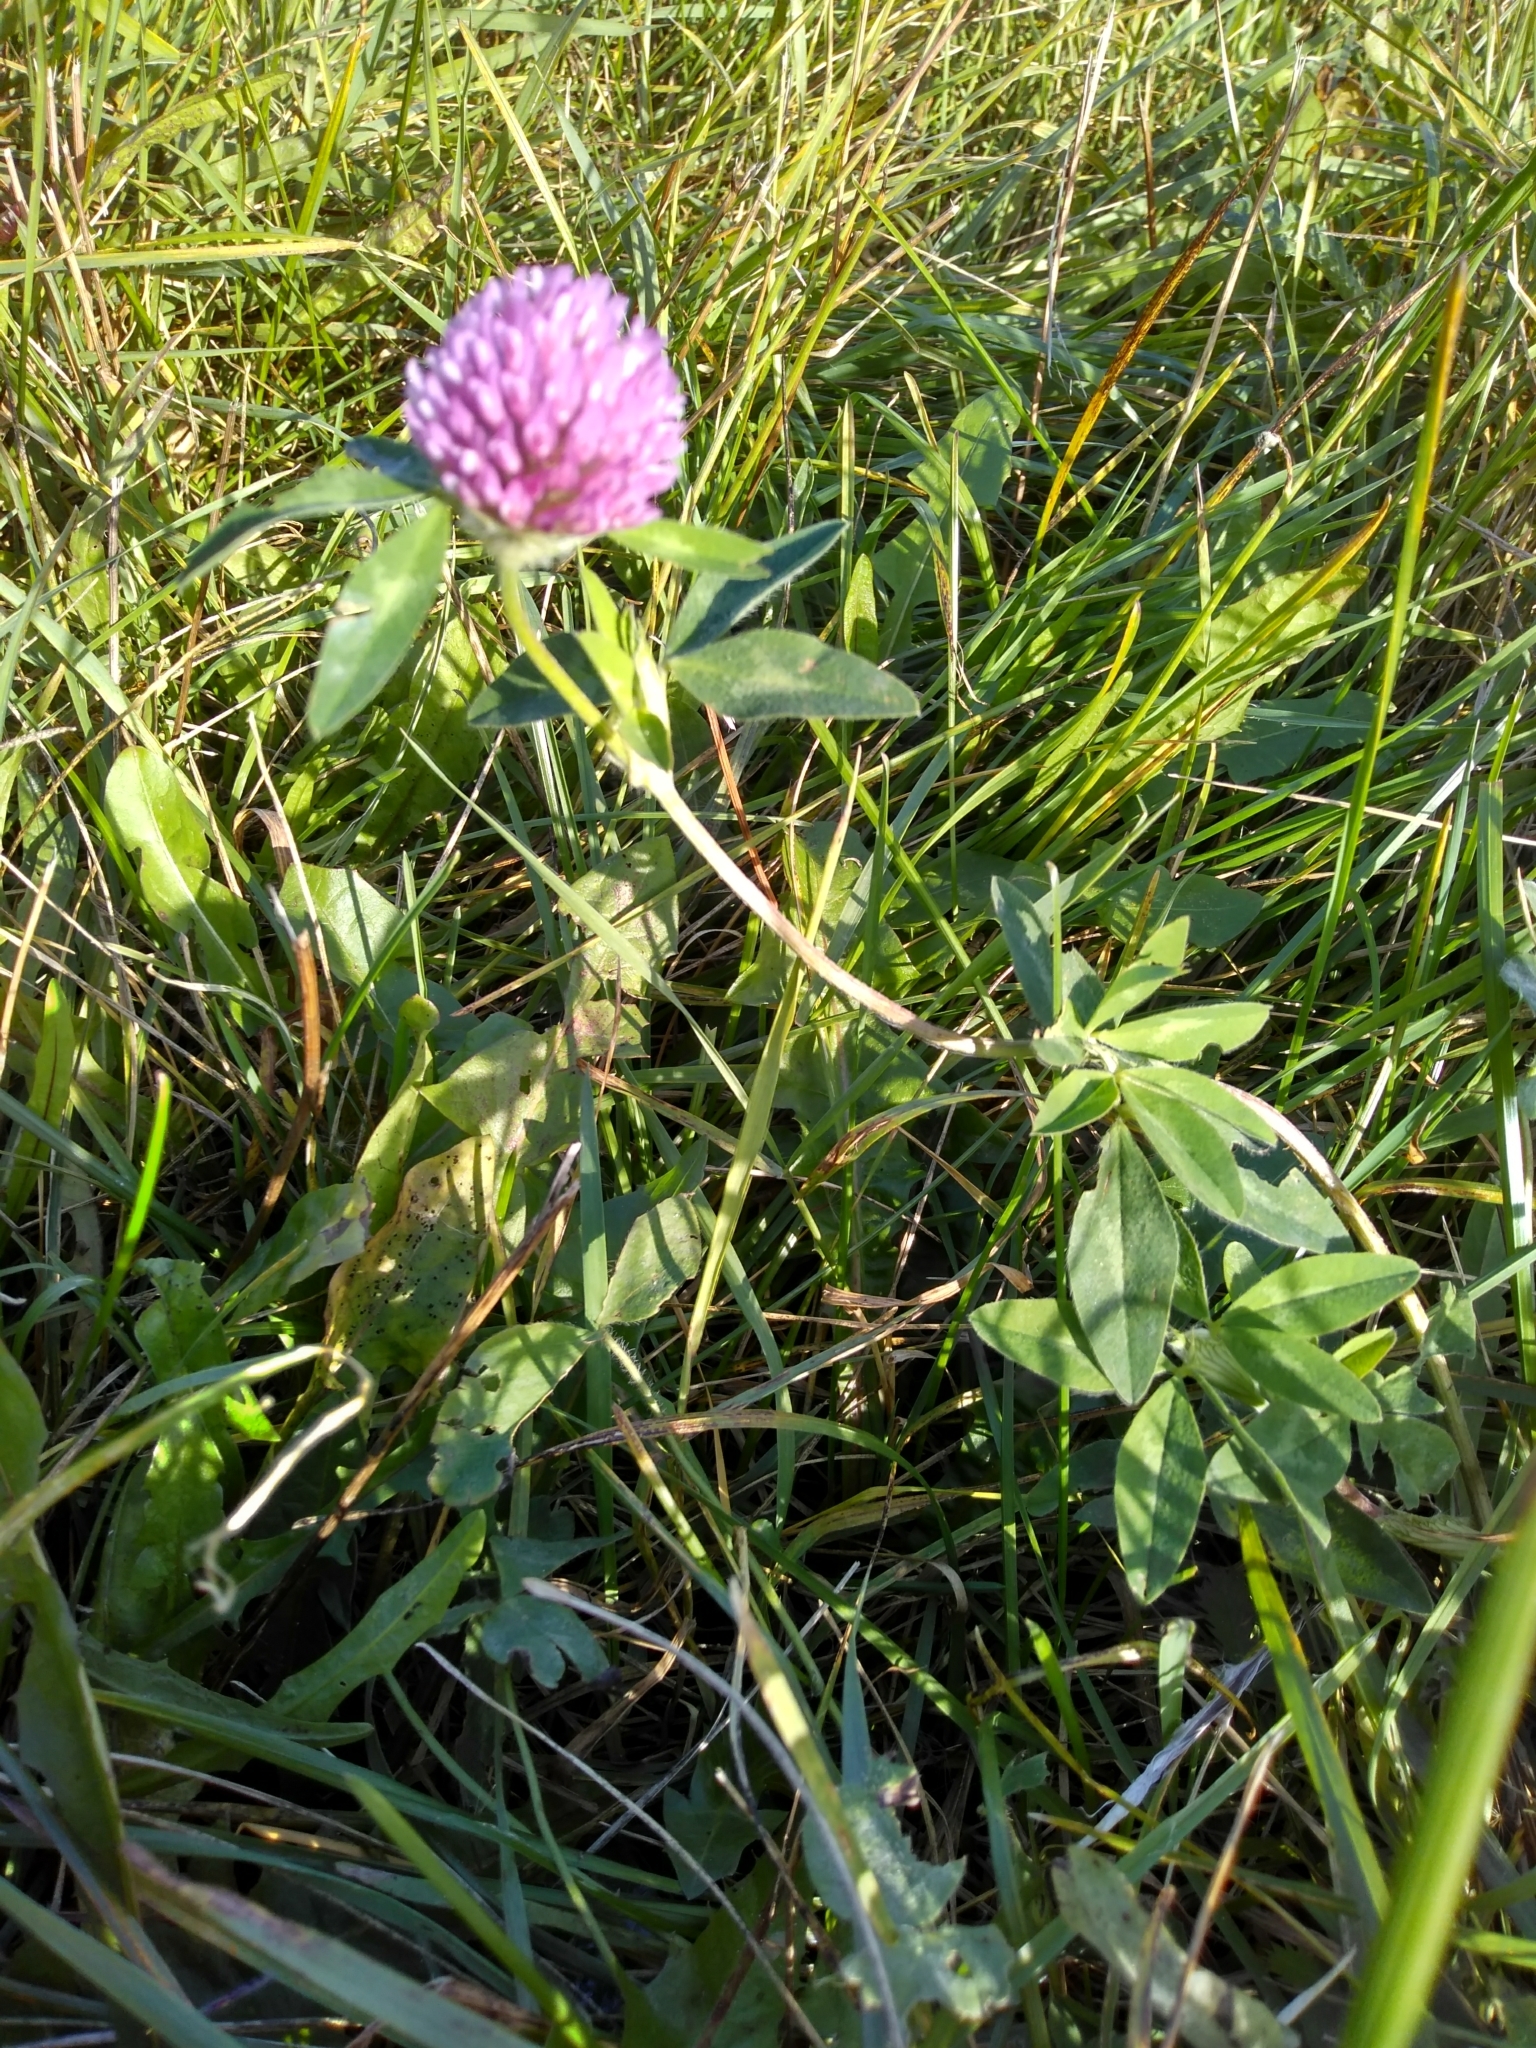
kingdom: Plantae
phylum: Tracheophyta
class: Magnoliopsida
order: Fabales
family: Fabaceae
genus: Trifolium
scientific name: Trifolium pratense
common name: Red clover
